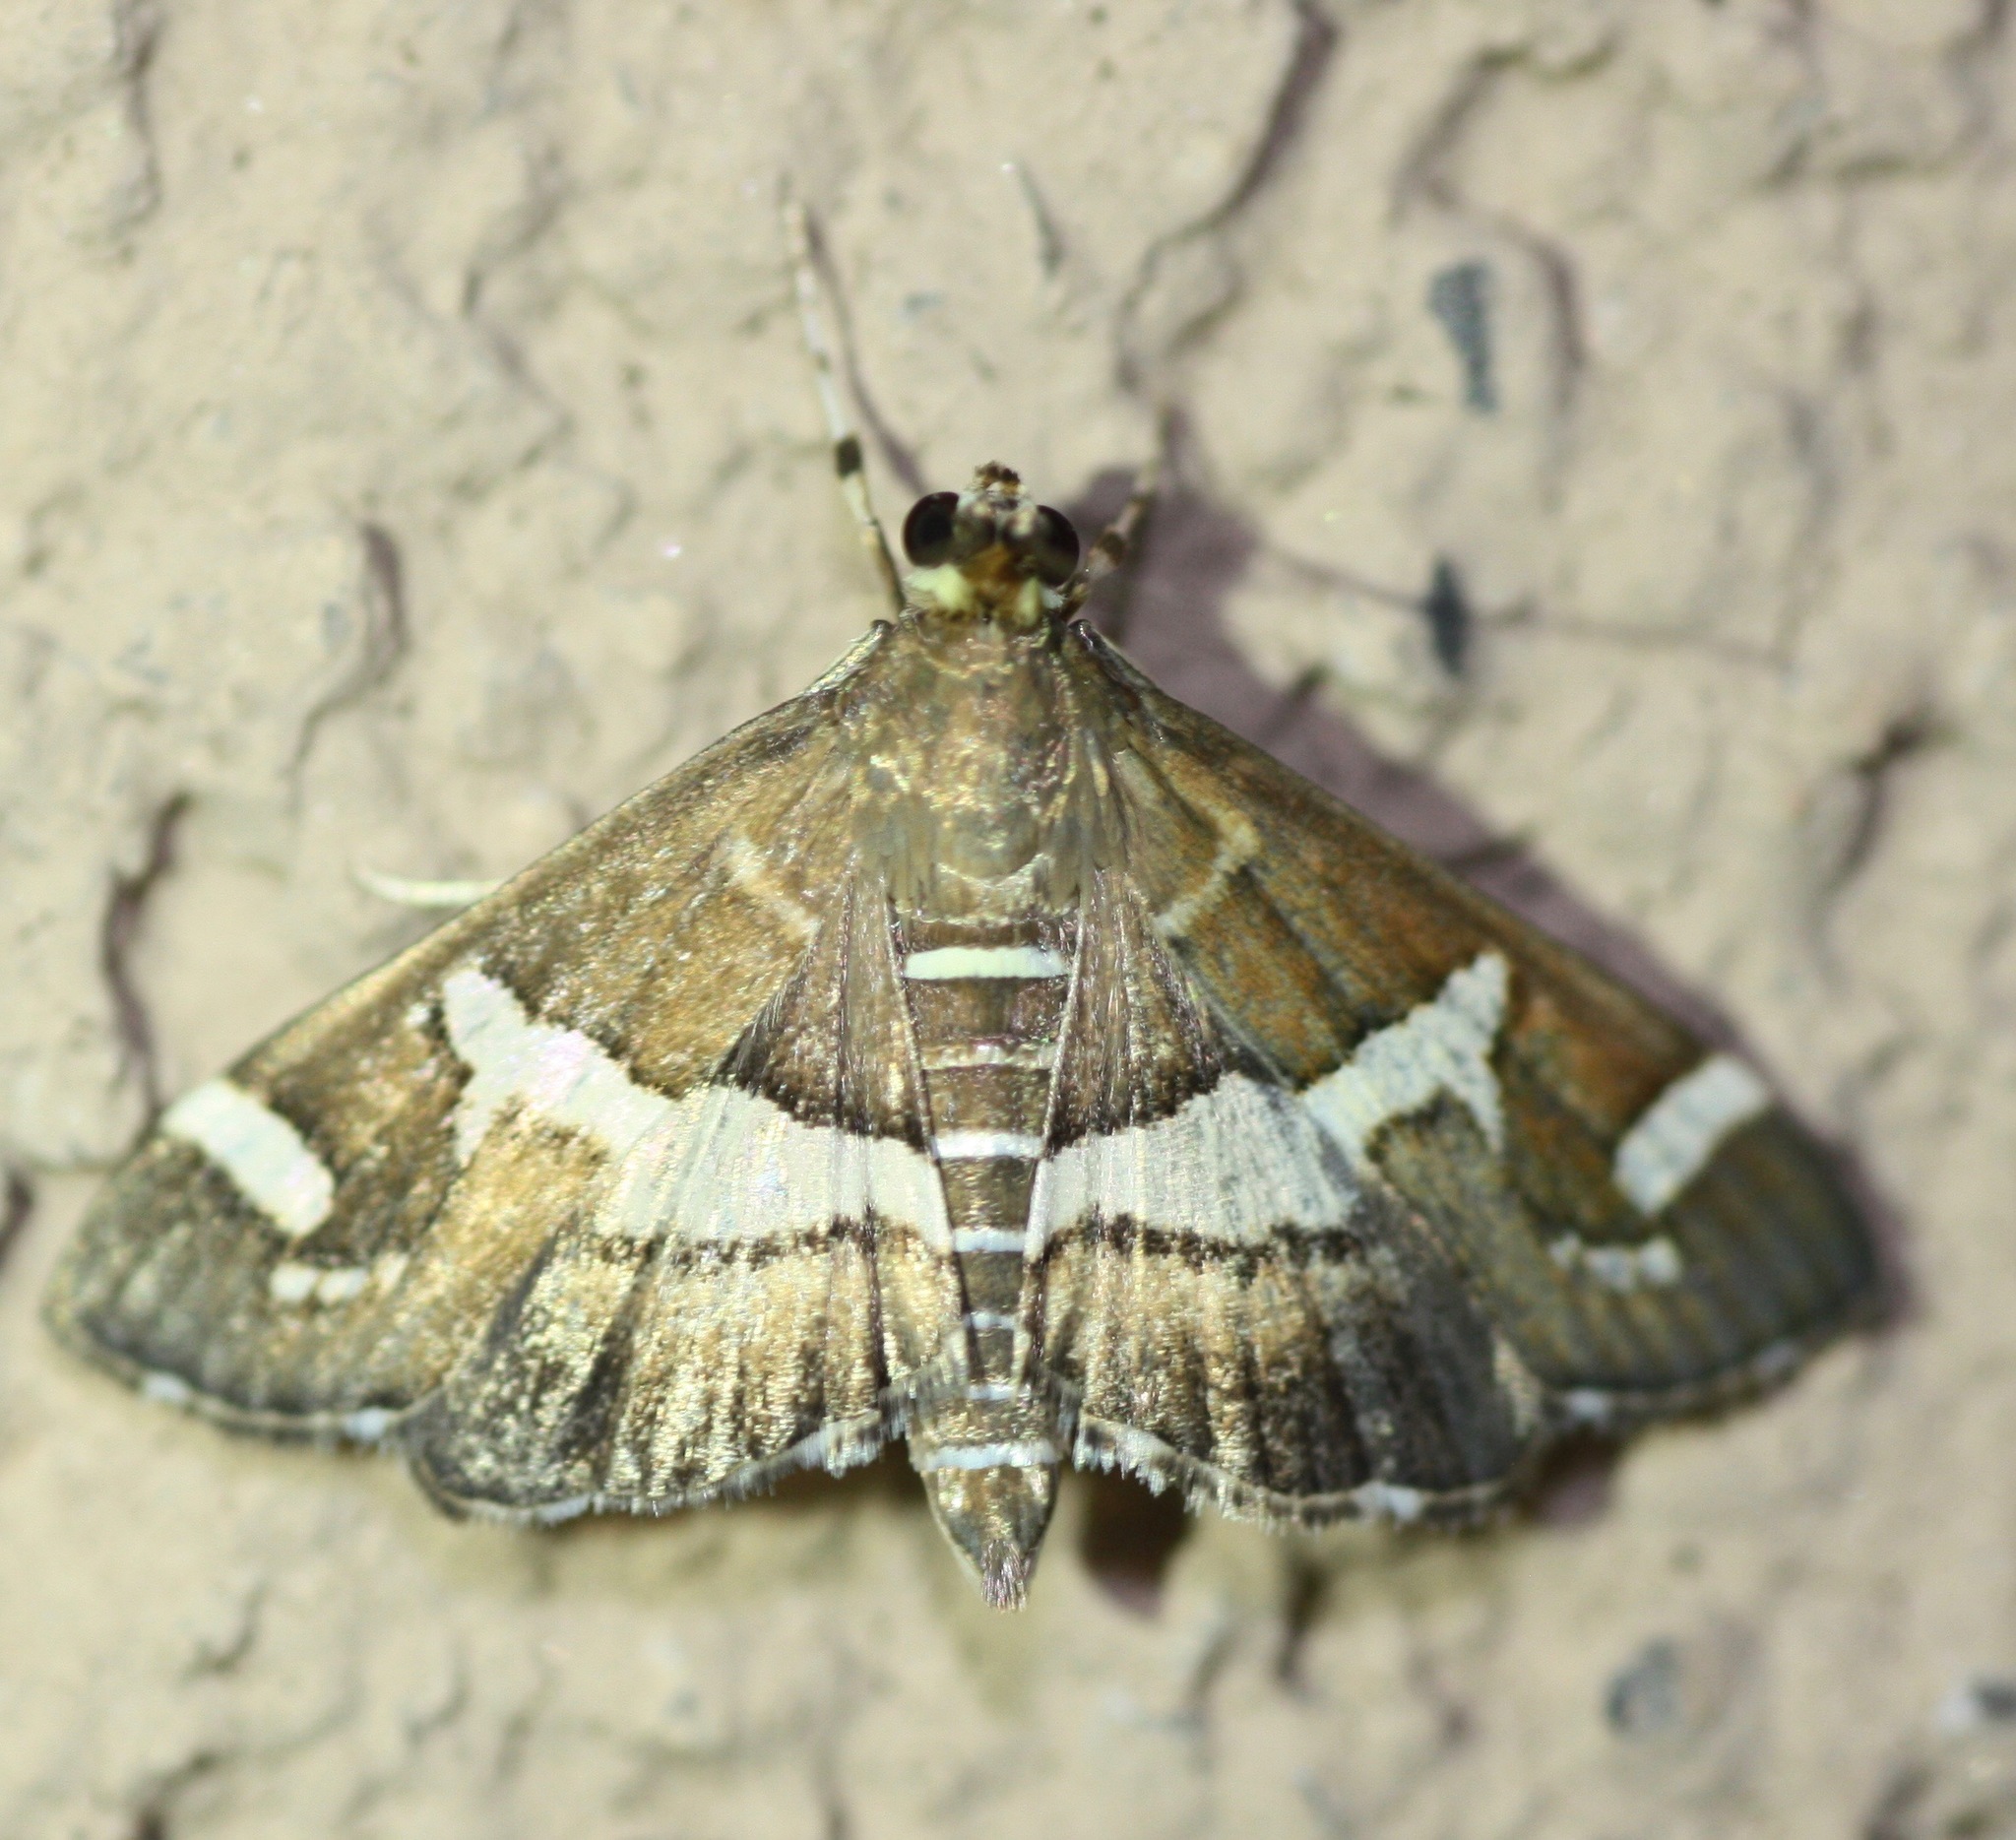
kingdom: Animalia
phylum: Arthropoda
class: Insecta
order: Lepidoptera
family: Crambidae
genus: Spoladea
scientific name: Spoladea recurvalis
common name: Beet webworm moth
